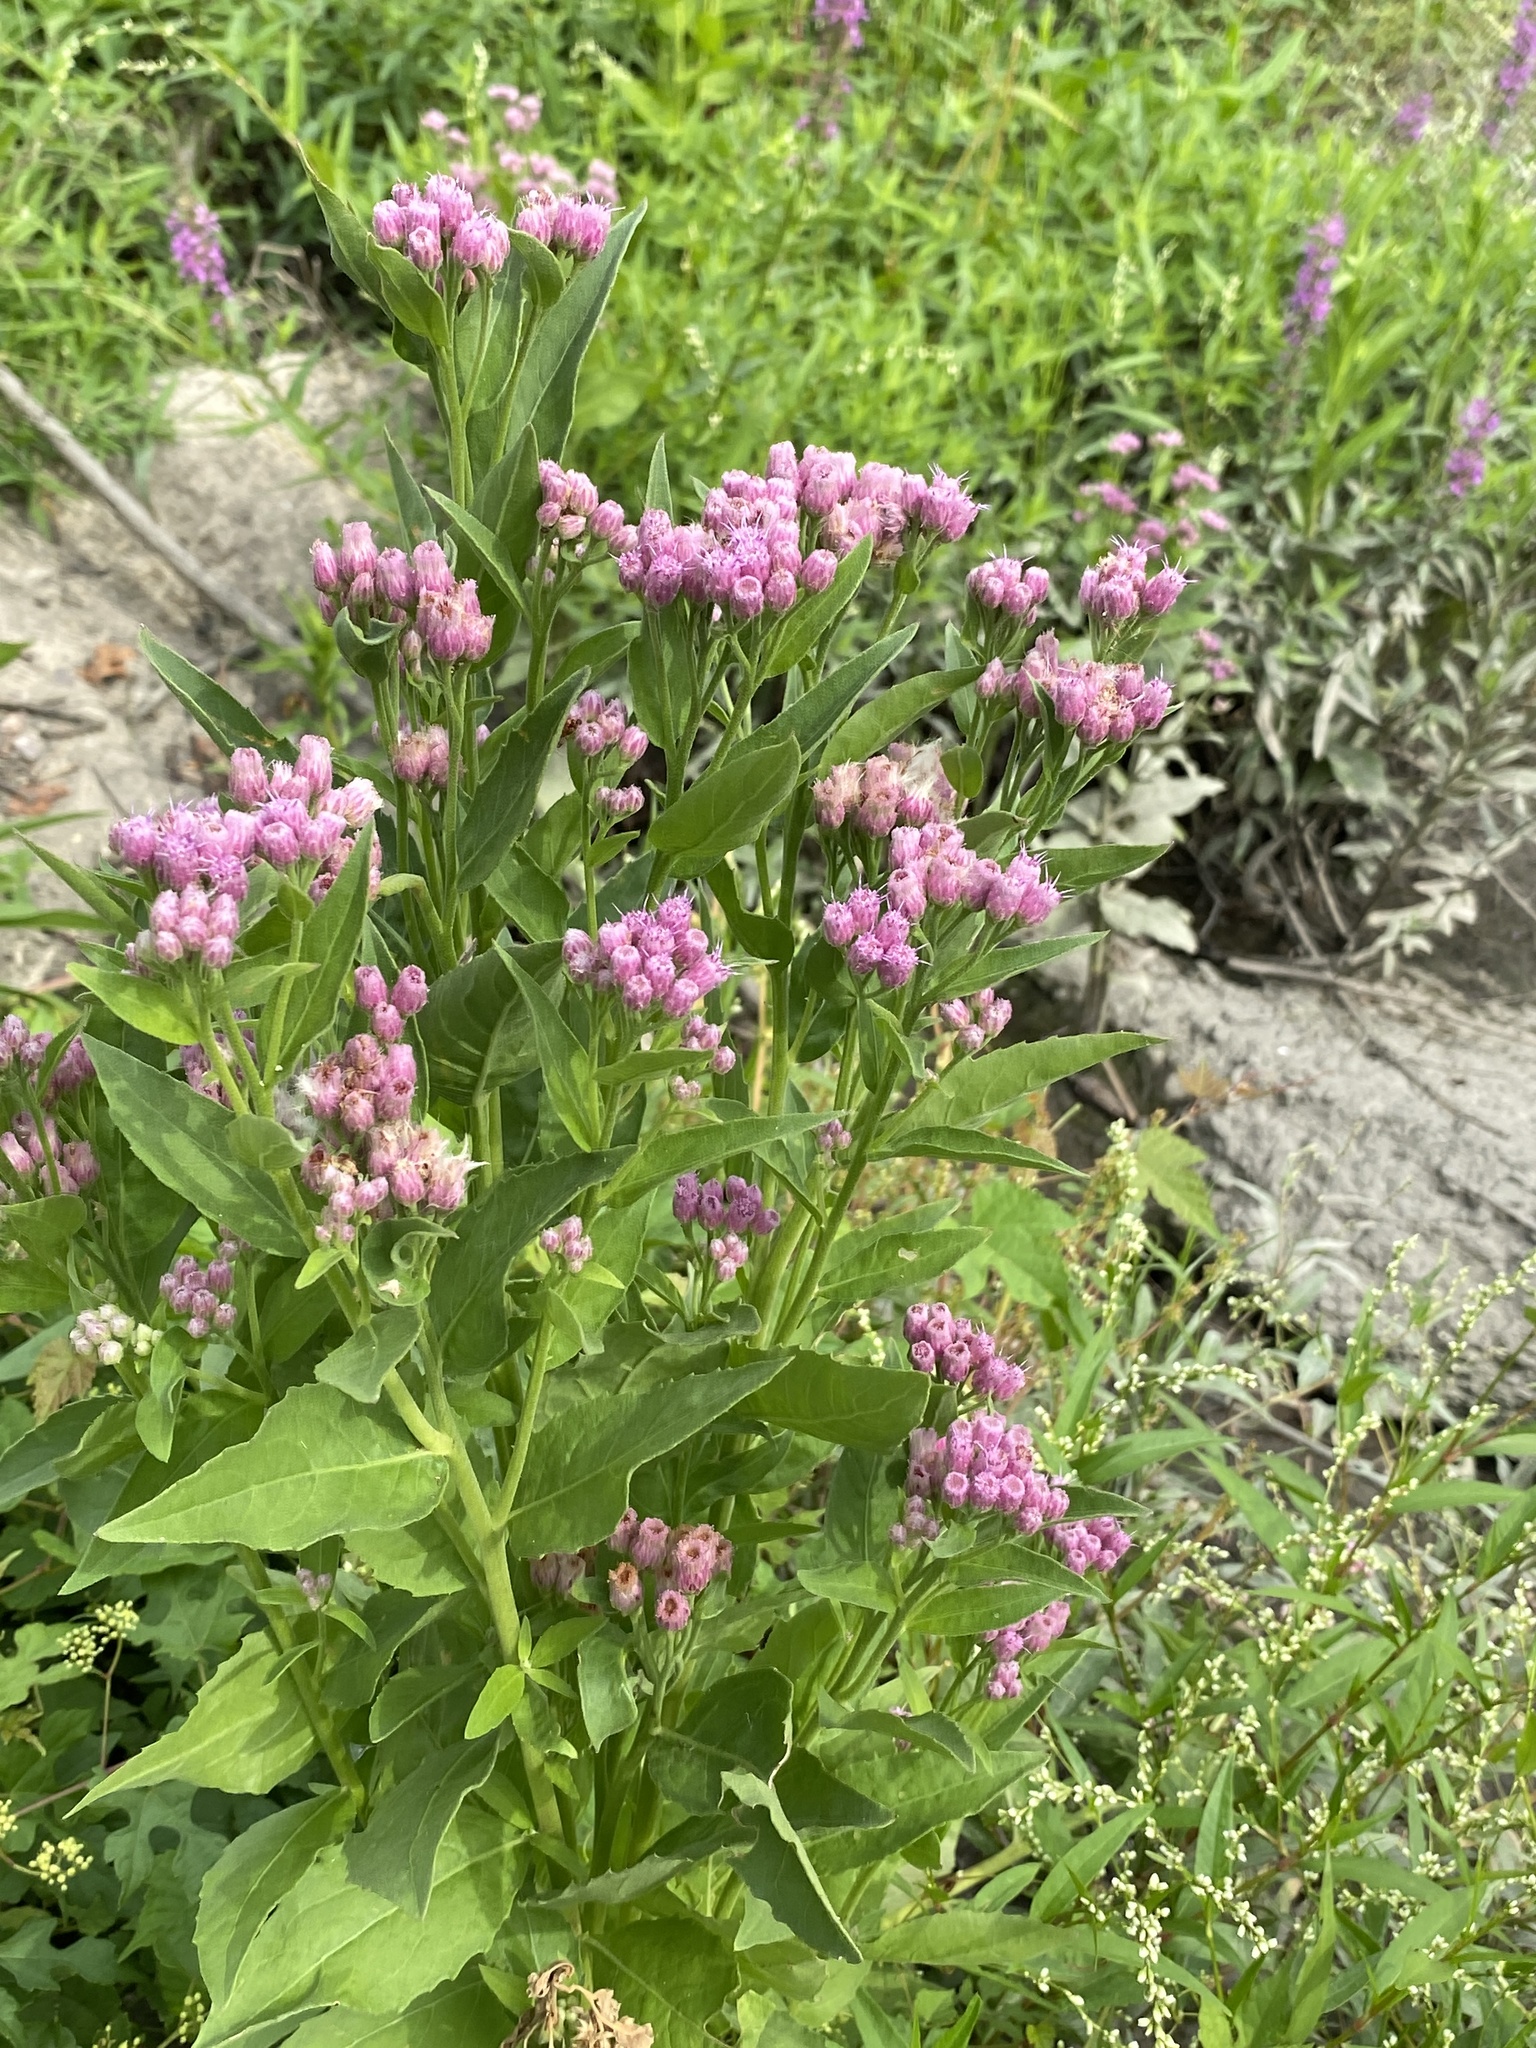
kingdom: Plantae
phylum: Tracheophyta
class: Magnoliopsida
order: Asterales
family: Asteraceae
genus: Pluchea
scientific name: Pluchea odorata
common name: Saltmarsh fleabane
